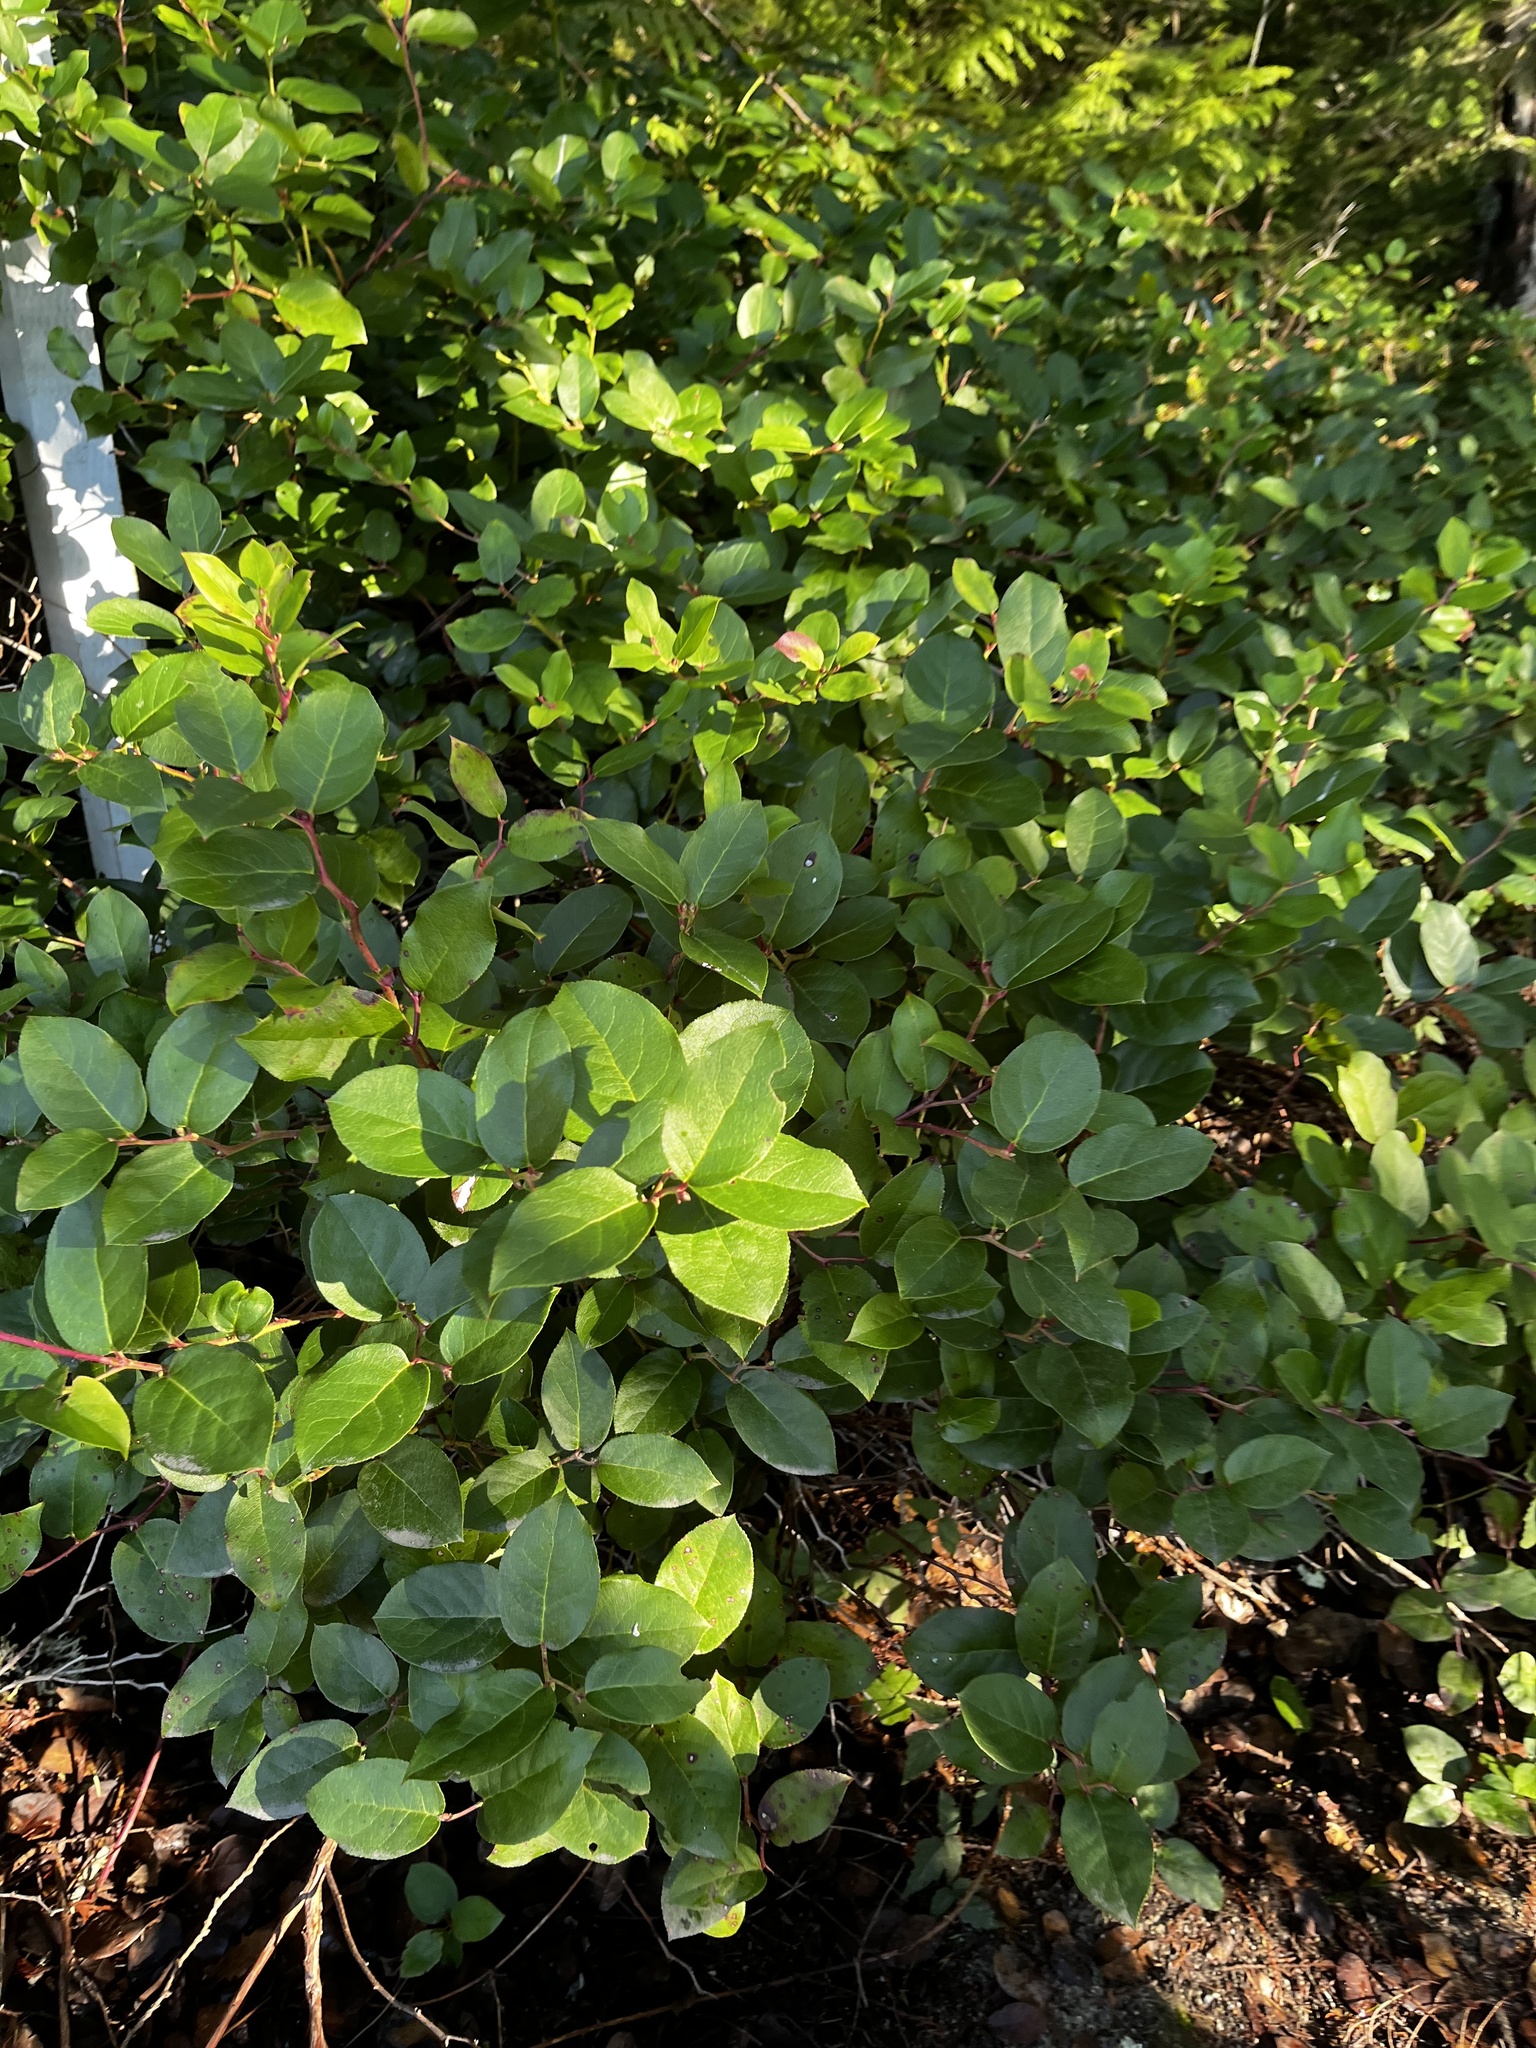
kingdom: Plantae
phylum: Tracheophyta
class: Magnoliopsida
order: Ericales
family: Ericaceae
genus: Gaultheria
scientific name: Gaultheria shallon
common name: Shallon
